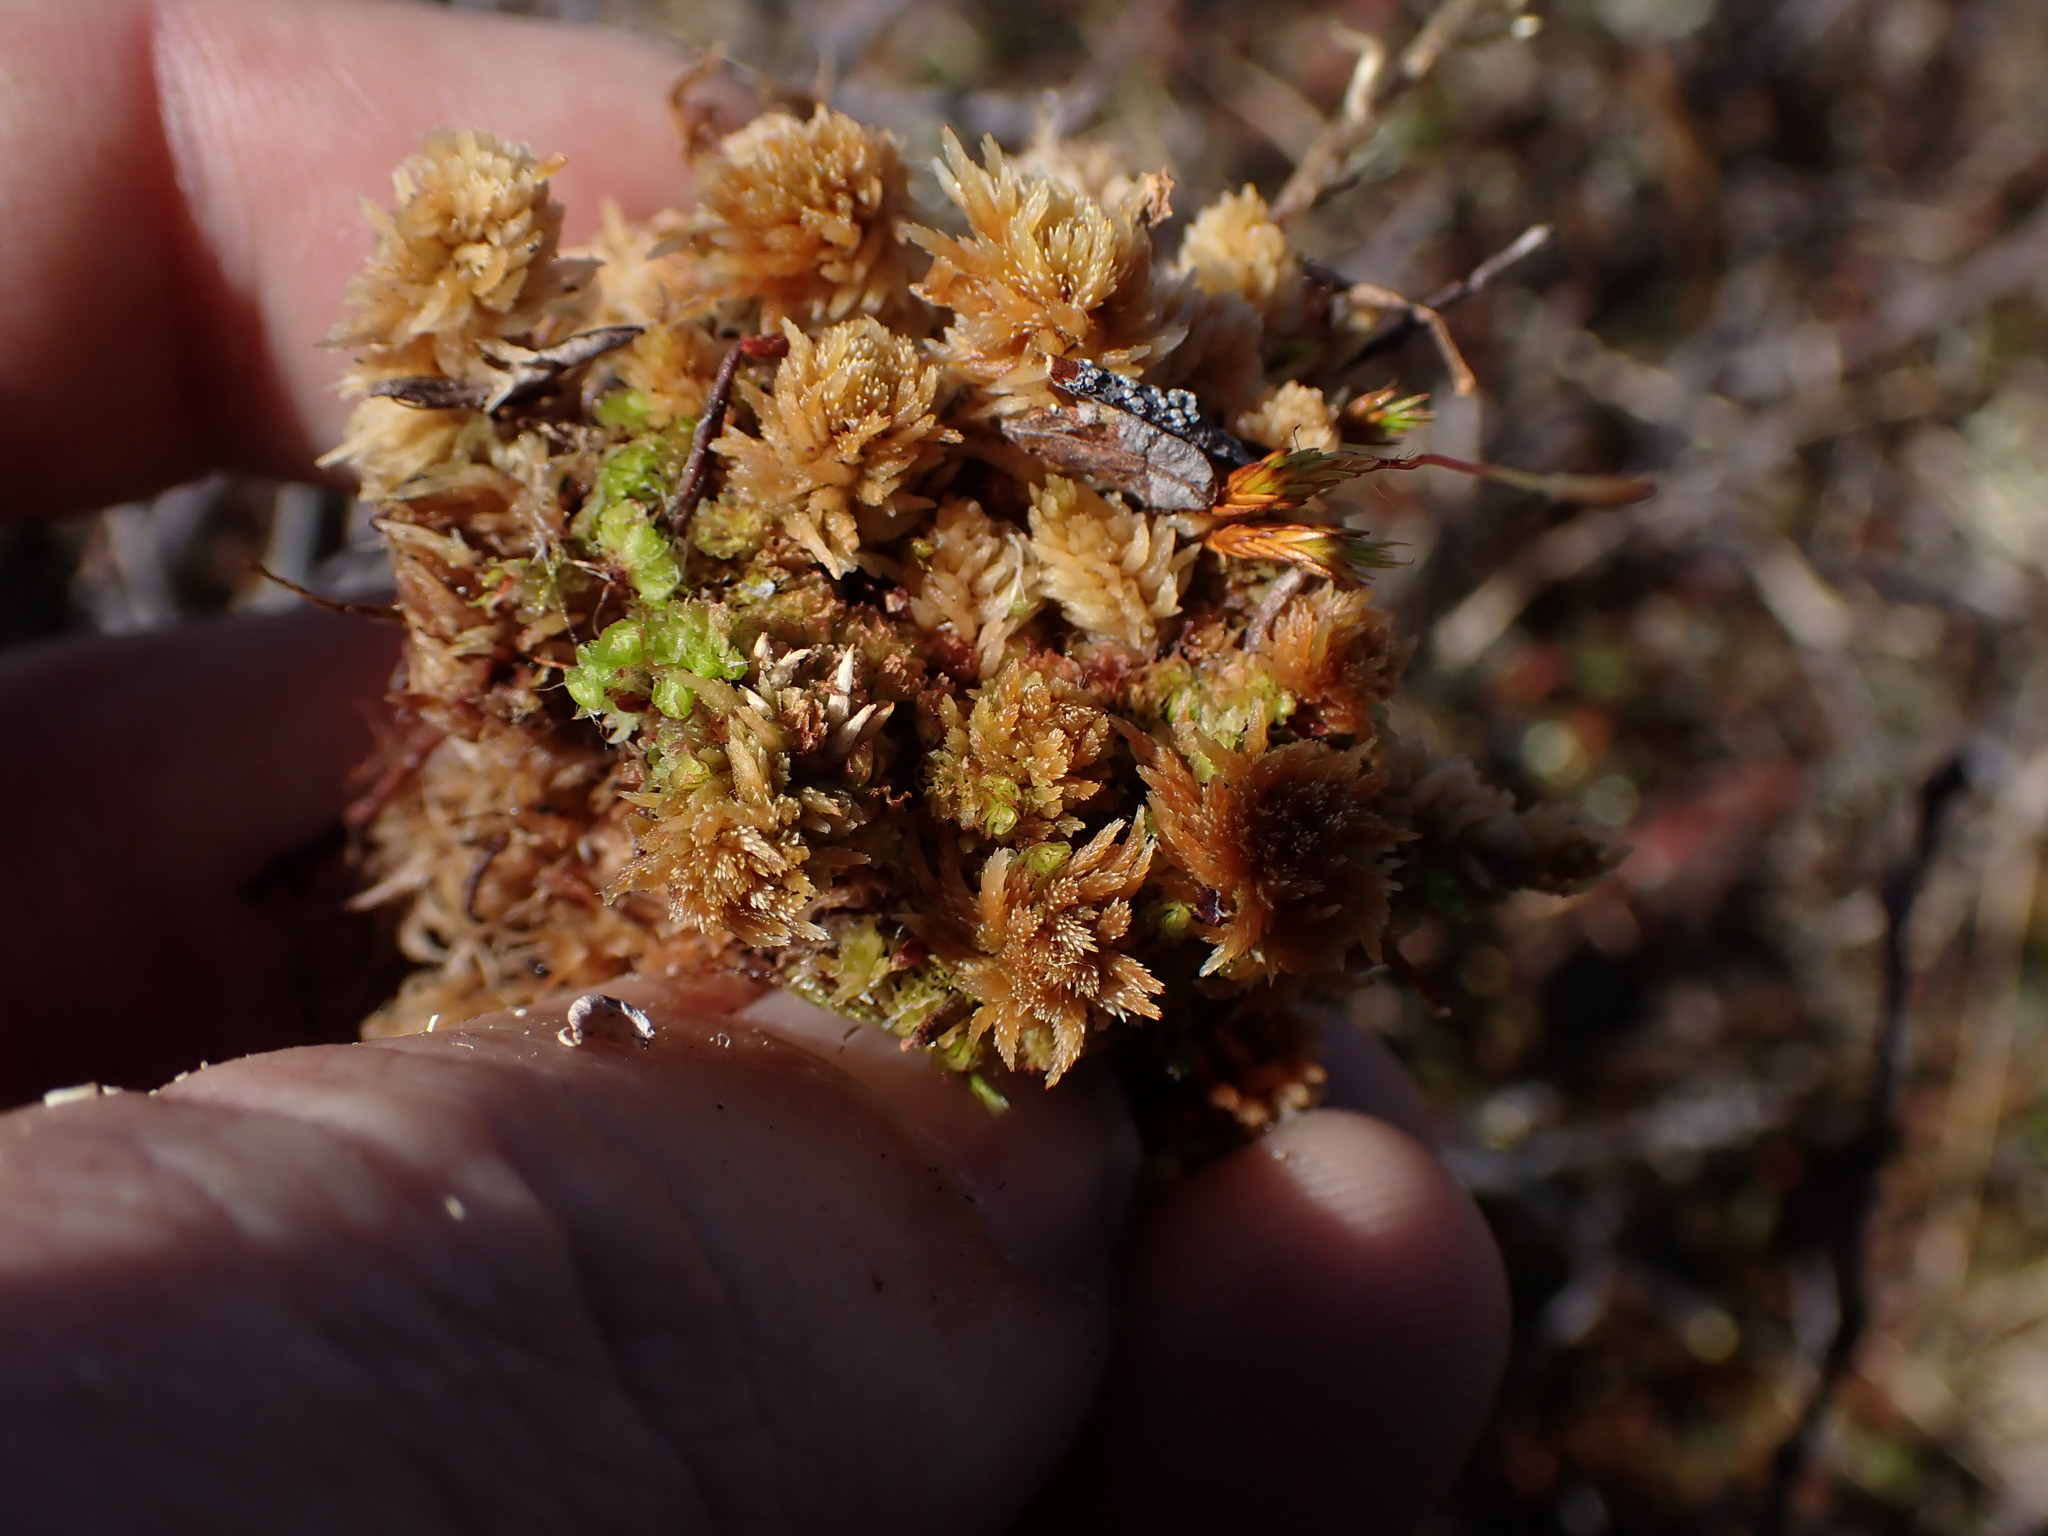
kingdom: Plantae
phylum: Bryophyta
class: Sphagnopsida
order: Sphagnales
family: Sphagnaceae
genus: Sphagnum
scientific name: Sphagnum fuscum
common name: Brown peat moss
